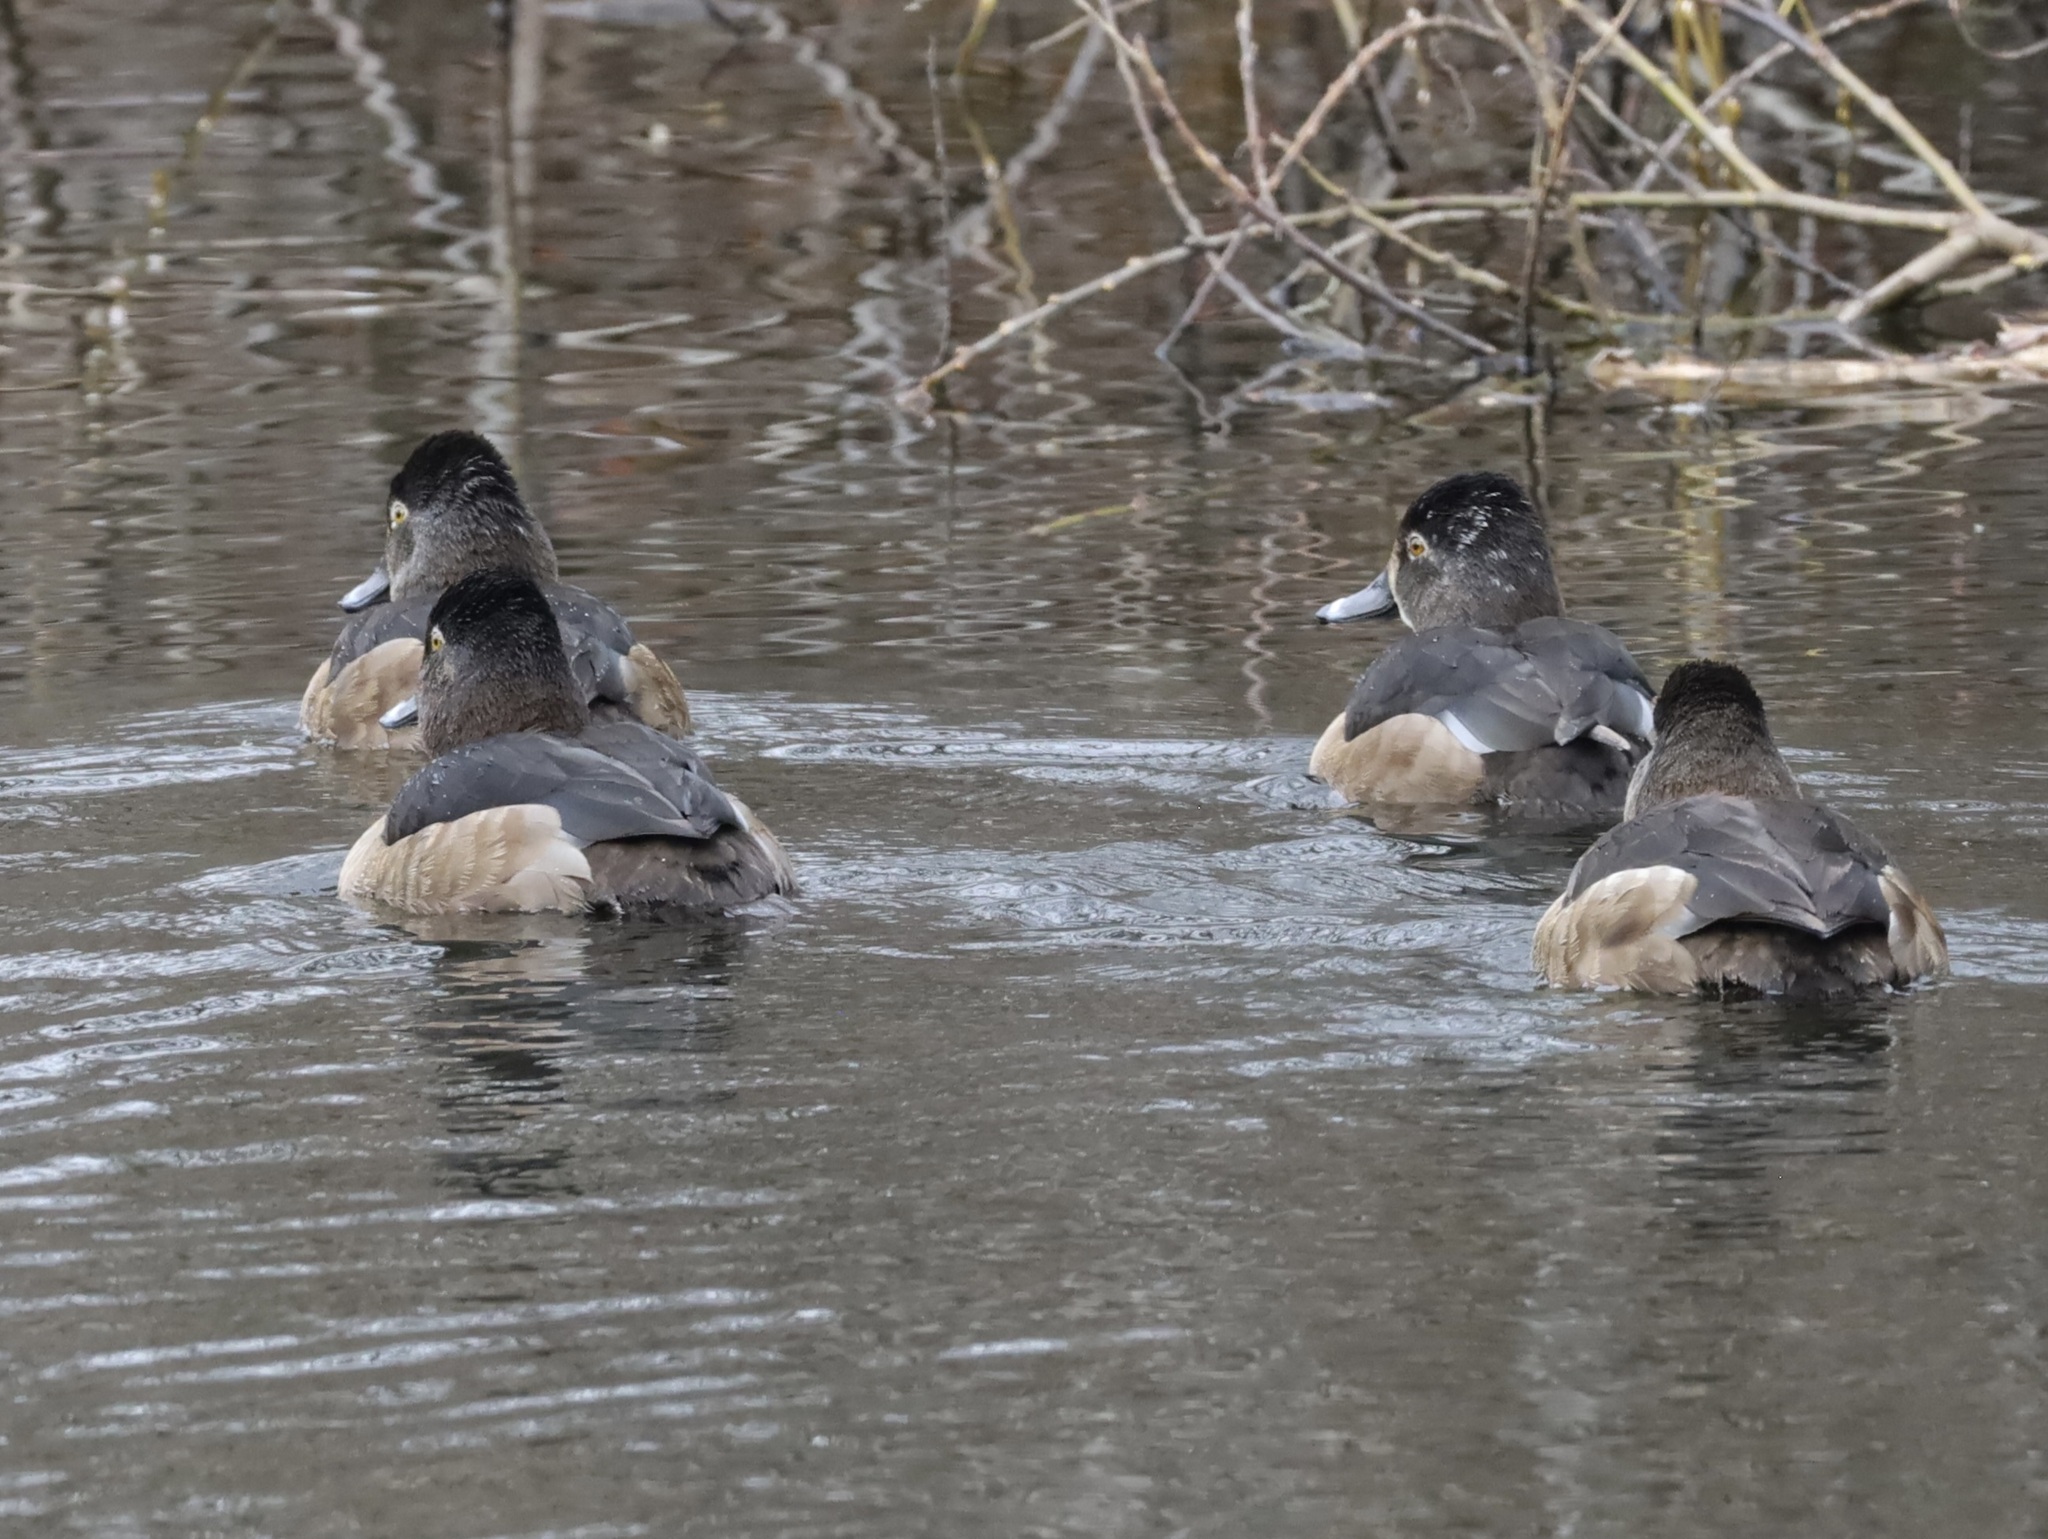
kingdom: Animalia
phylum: Chordata
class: Aves
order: Anseriformes
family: Anatidae
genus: Aythya
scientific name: Aythya collaris
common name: Ring-necked duck
